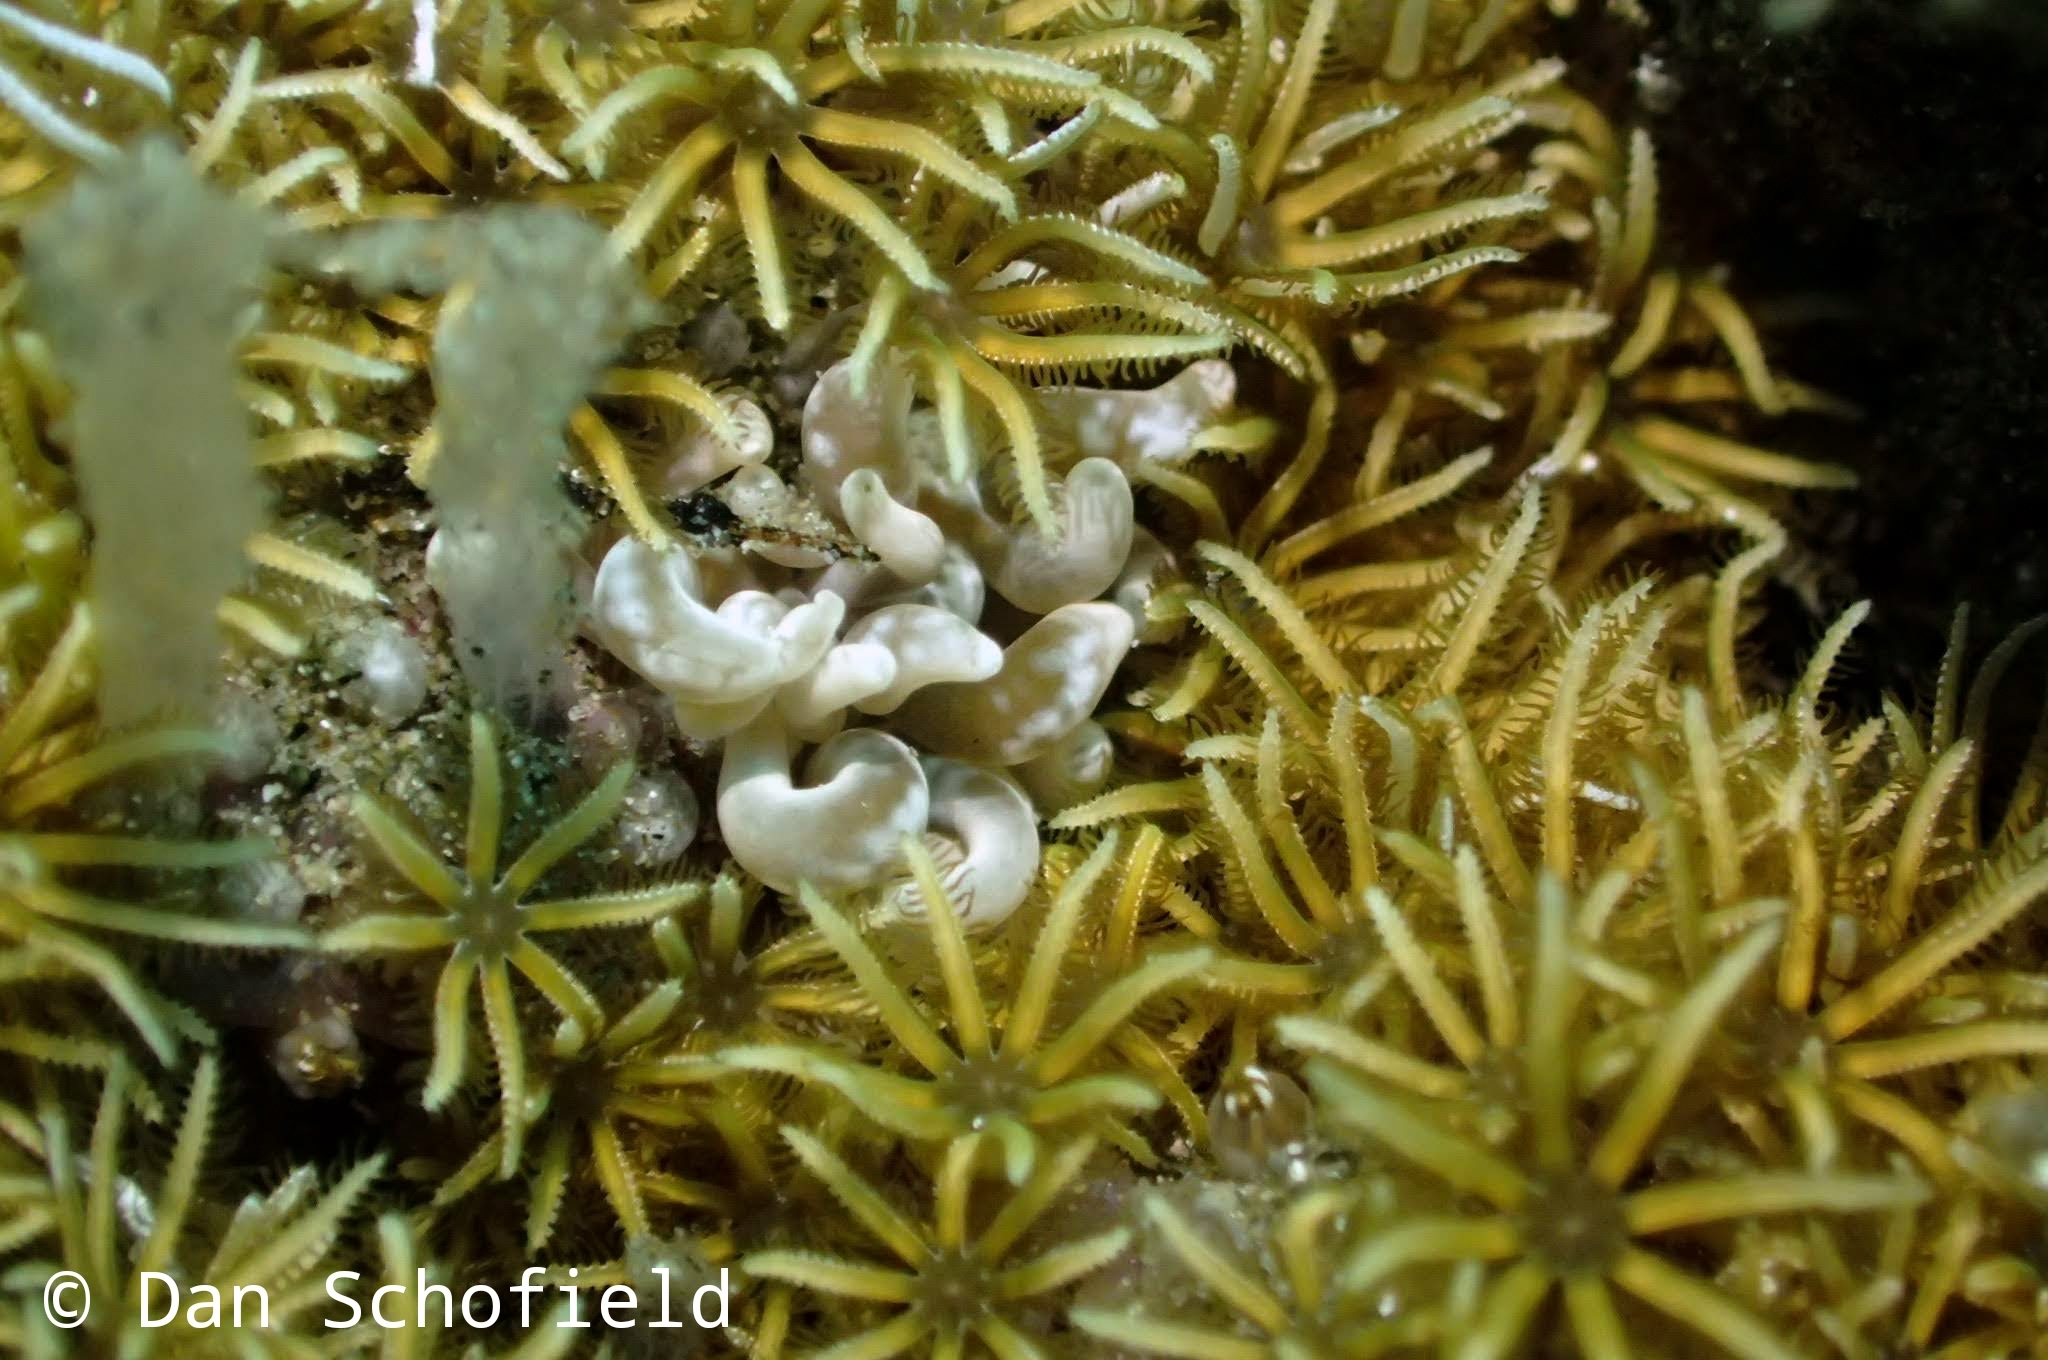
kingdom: Animalia
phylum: Mollusca
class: Gastropoda
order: Nudibranchia
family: Myrrhinidae
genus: Phyllodesmium
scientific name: Phyllodesmium colemani
